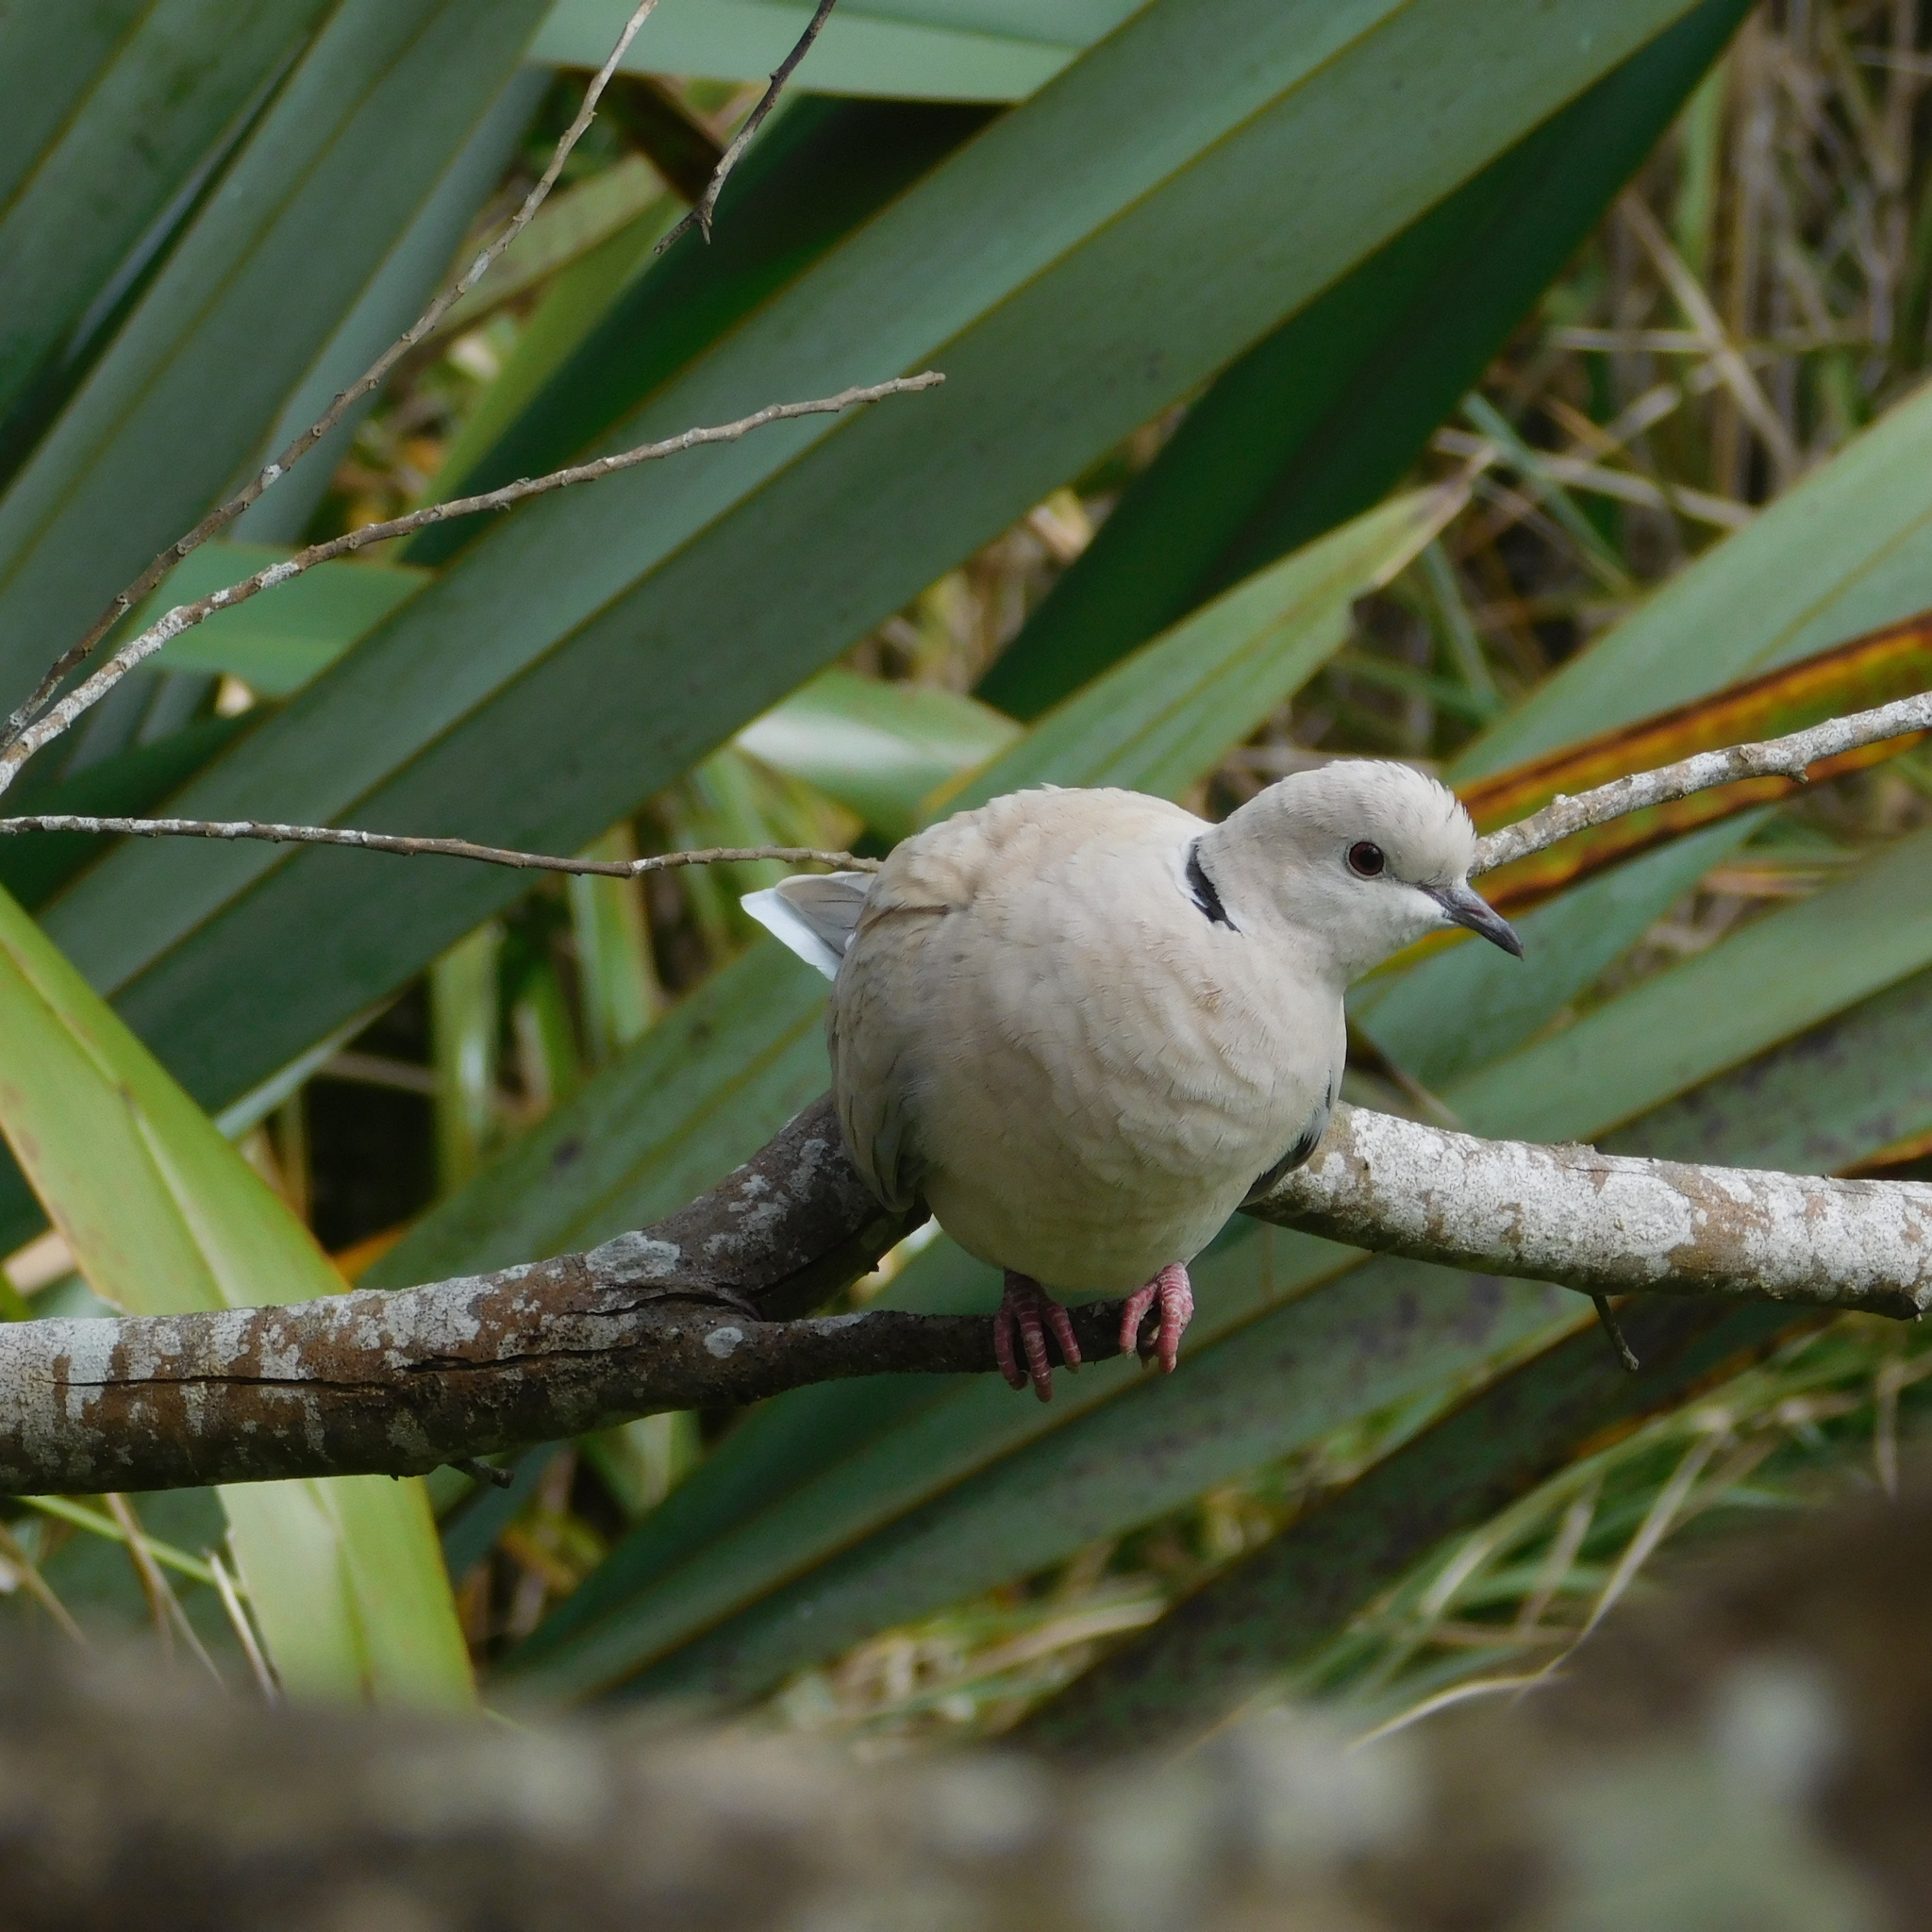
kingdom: Animalia
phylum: Chordata
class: Aves
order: Columbiformes
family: Columbidae
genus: Streptopelia
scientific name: Streptopelia roseogrisea
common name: African collared dove
